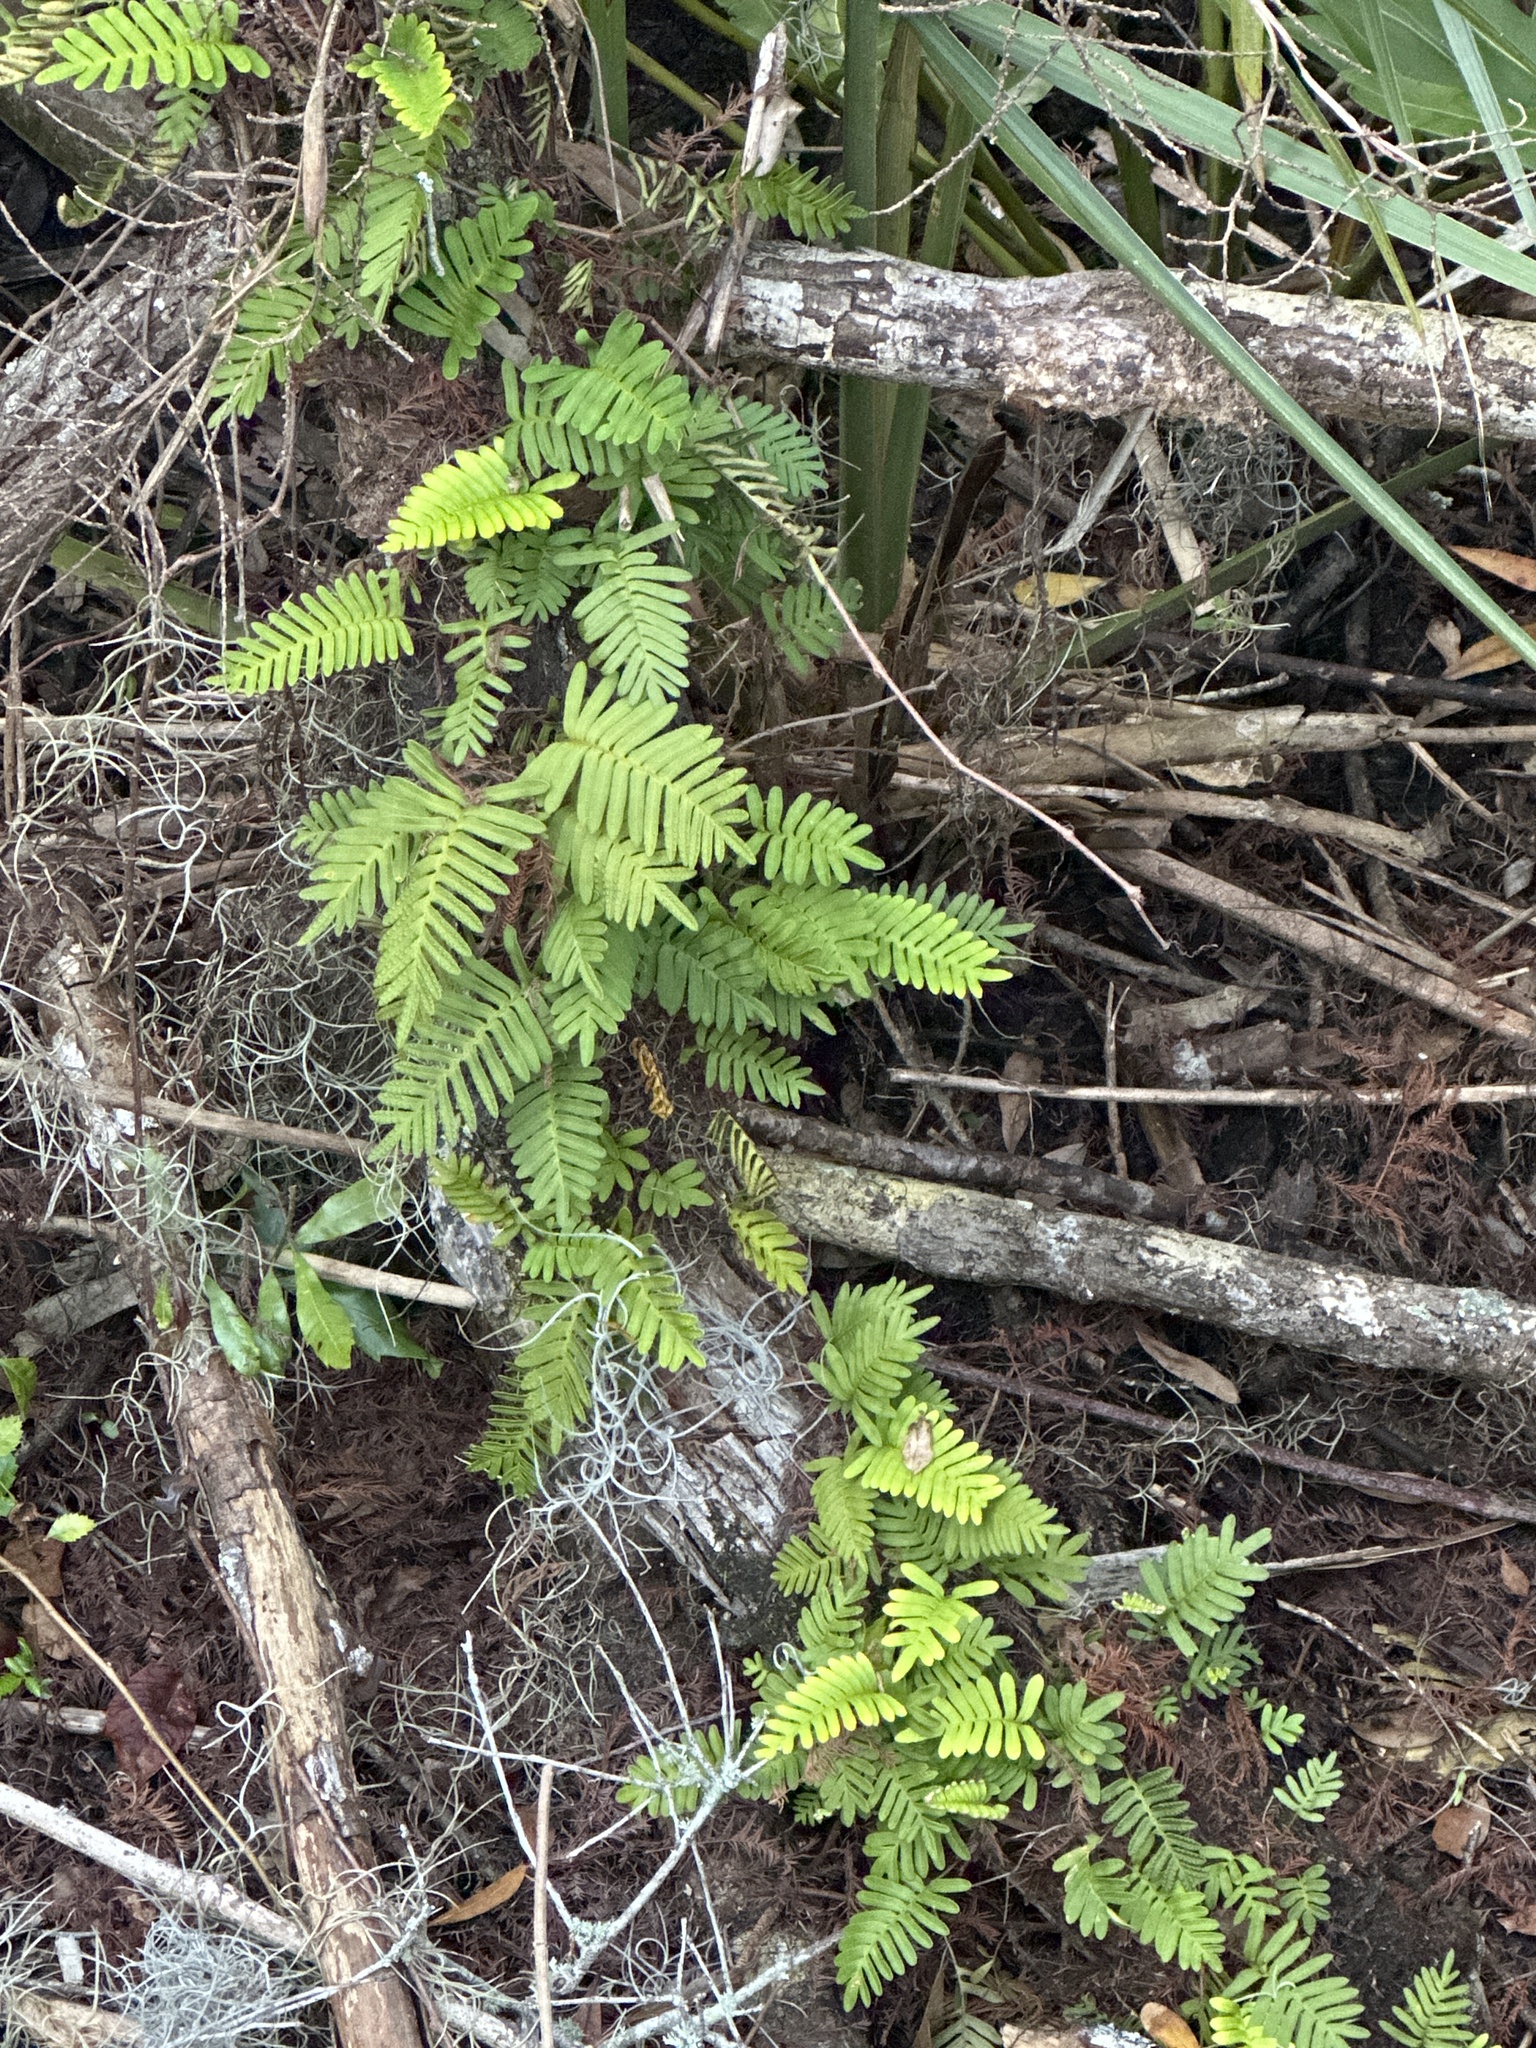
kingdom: Plantae
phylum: Tracheophyta
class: Polypodiopsida
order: Polypodiales
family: Polypodiaceae
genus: Pleopeltis
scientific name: Pleopeltis michauxiana
